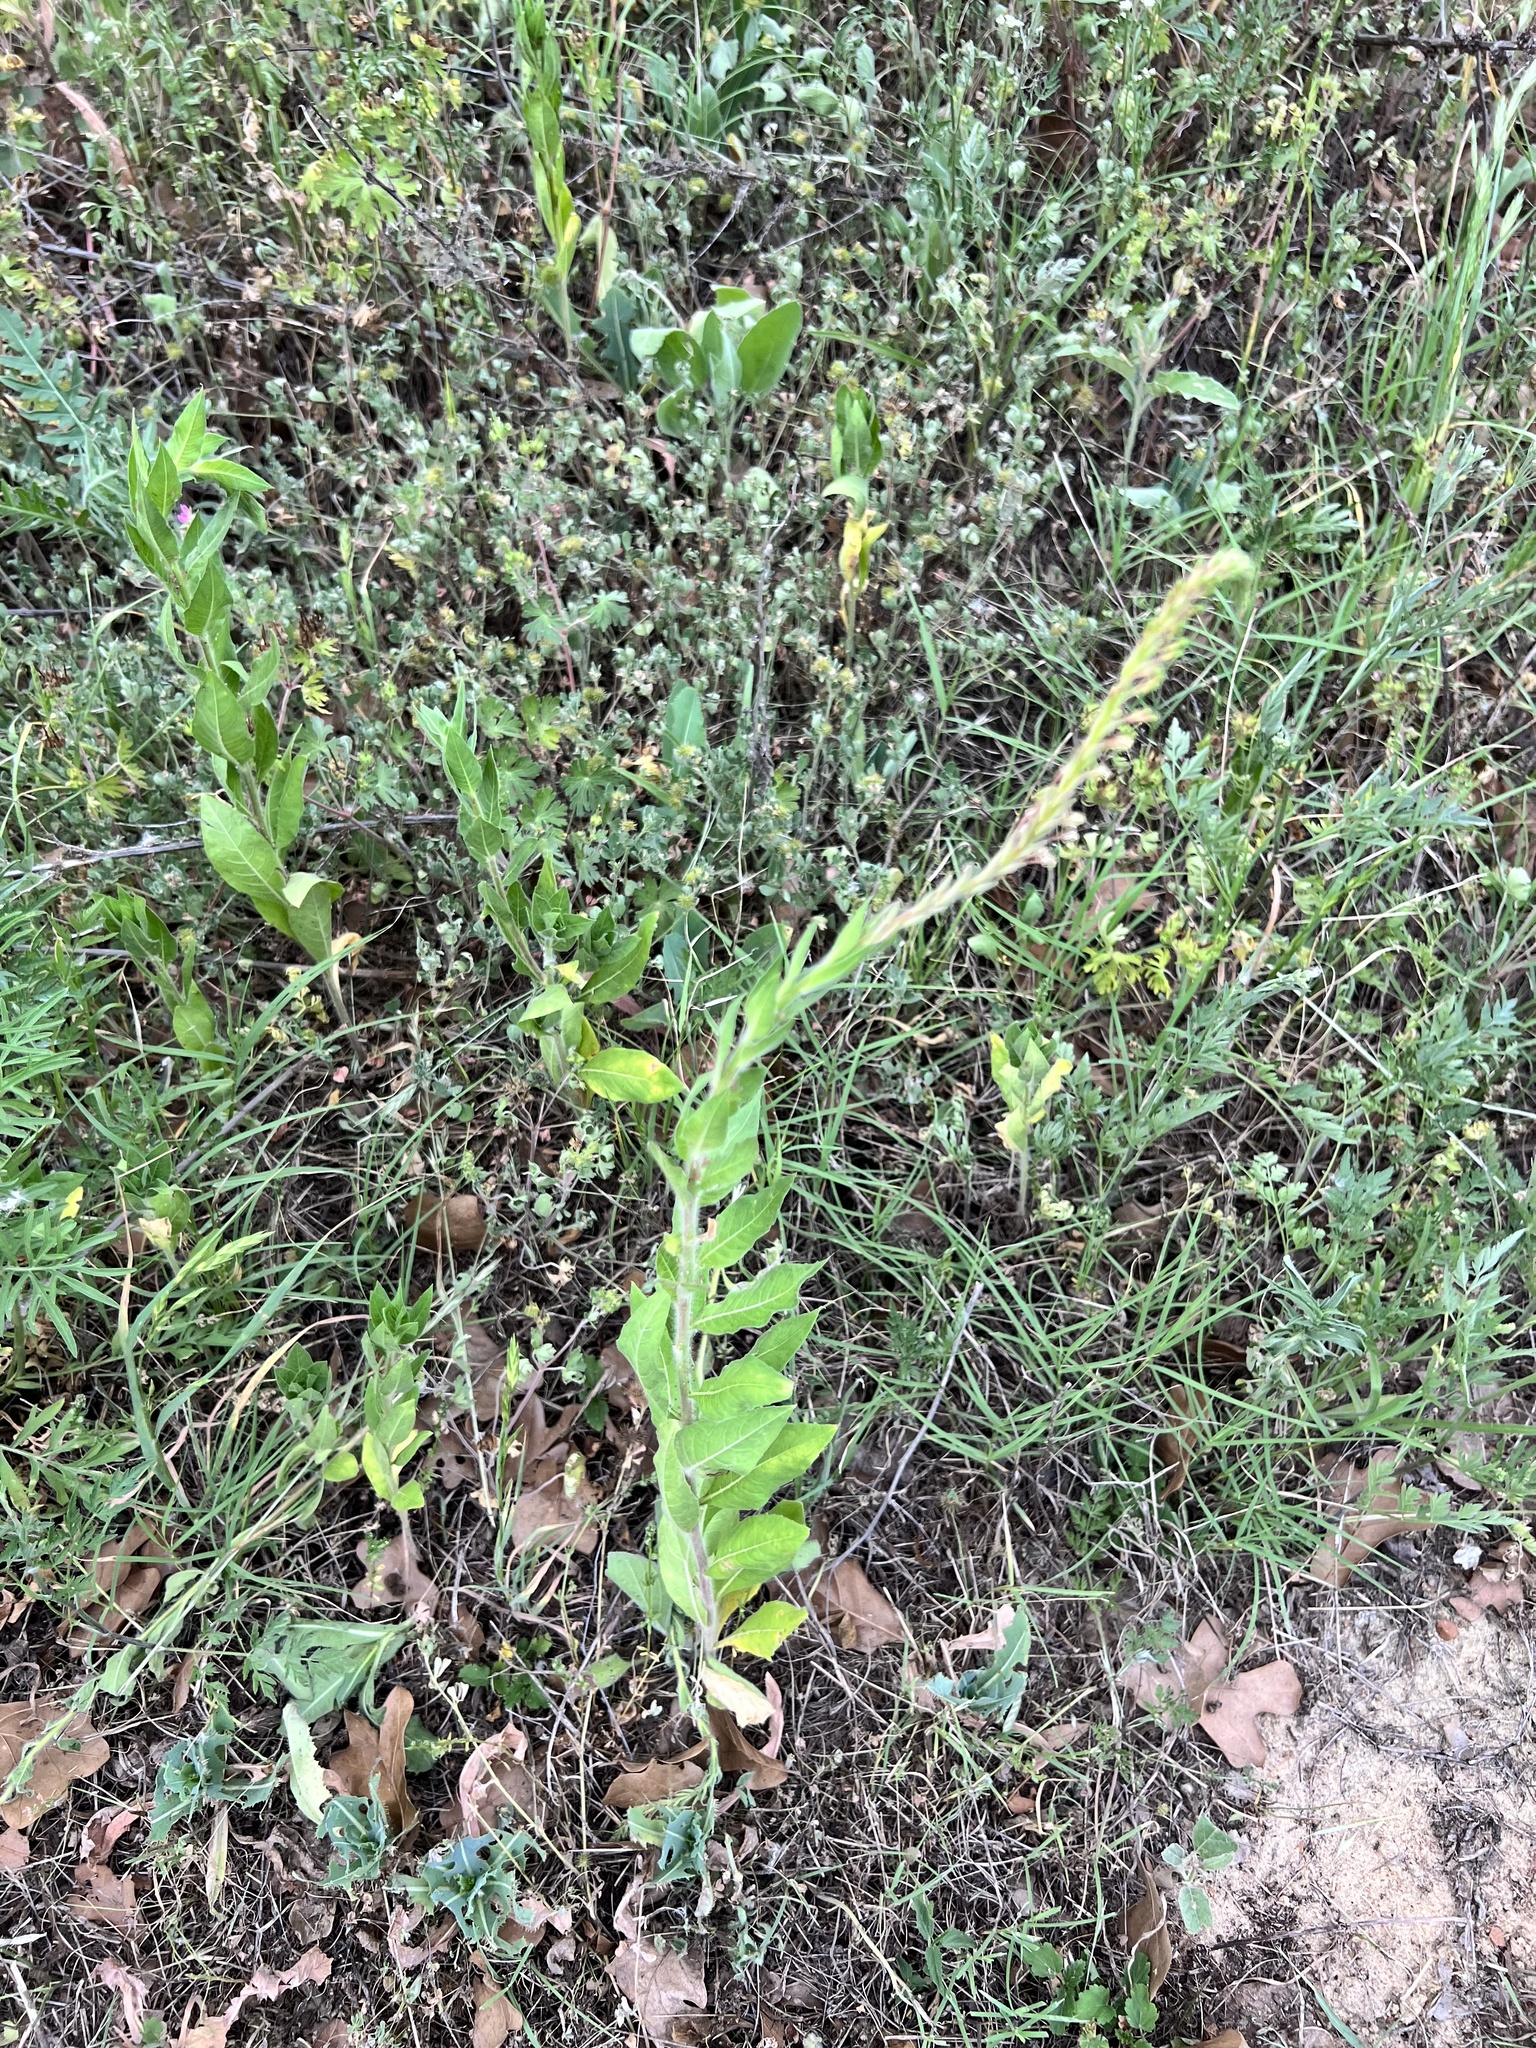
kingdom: Plantae
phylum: Tracheophyta
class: Magnoliopsida
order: Myrtales
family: Onagraceae
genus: Oenothera
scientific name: Oenothera curtiflora
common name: Velvetweed
